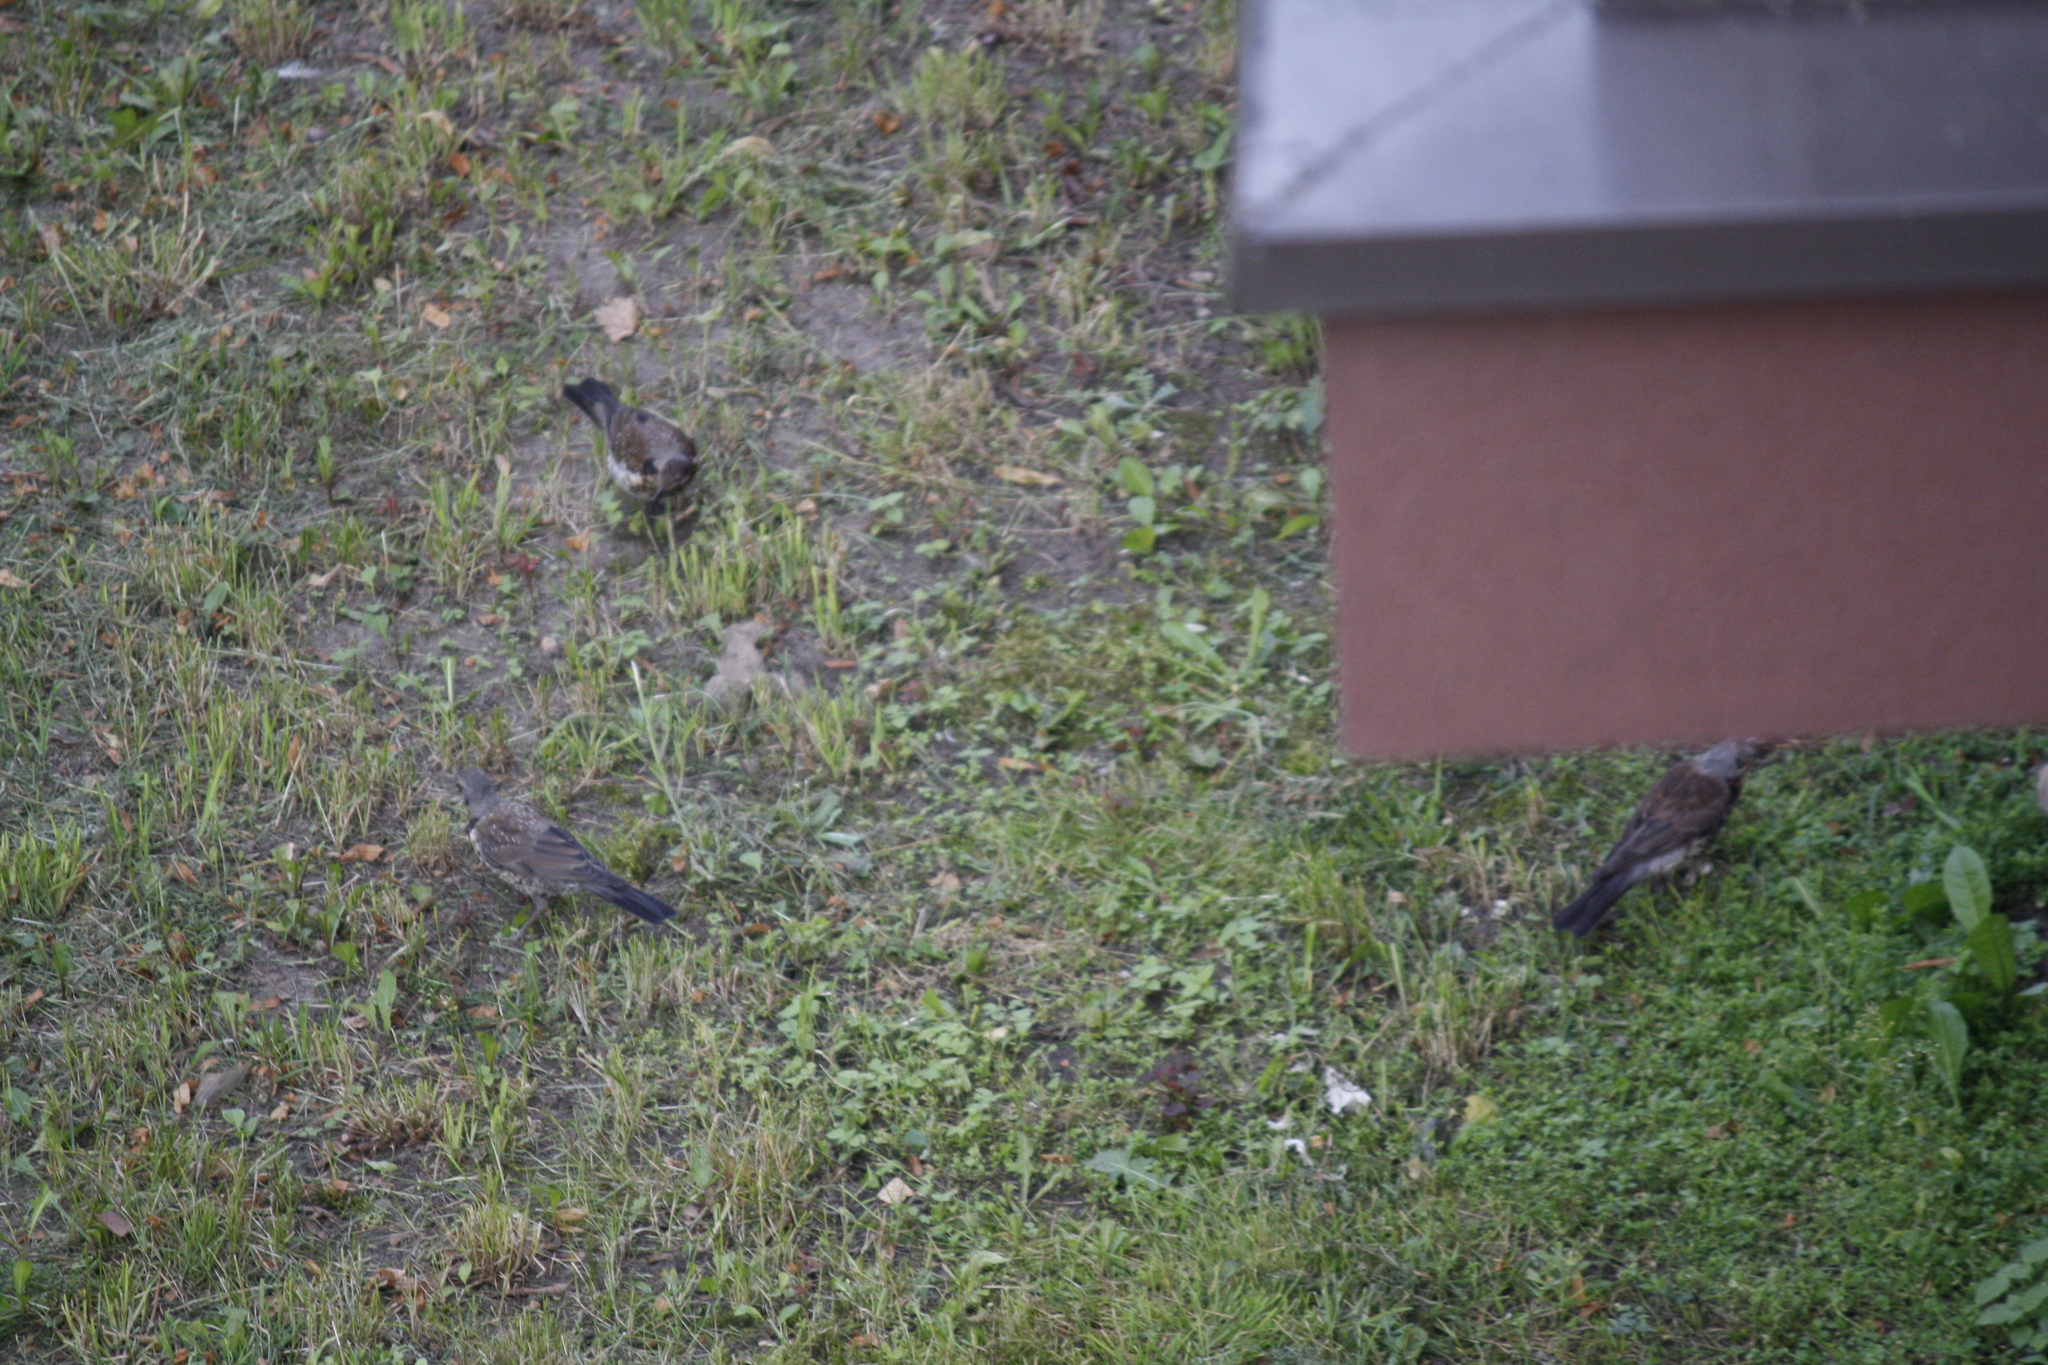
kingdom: Animalia
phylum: Chordata
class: Aves
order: Passeriformes
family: Turdidae
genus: Turdus
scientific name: Turdus pilaris
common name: Fieldfare
